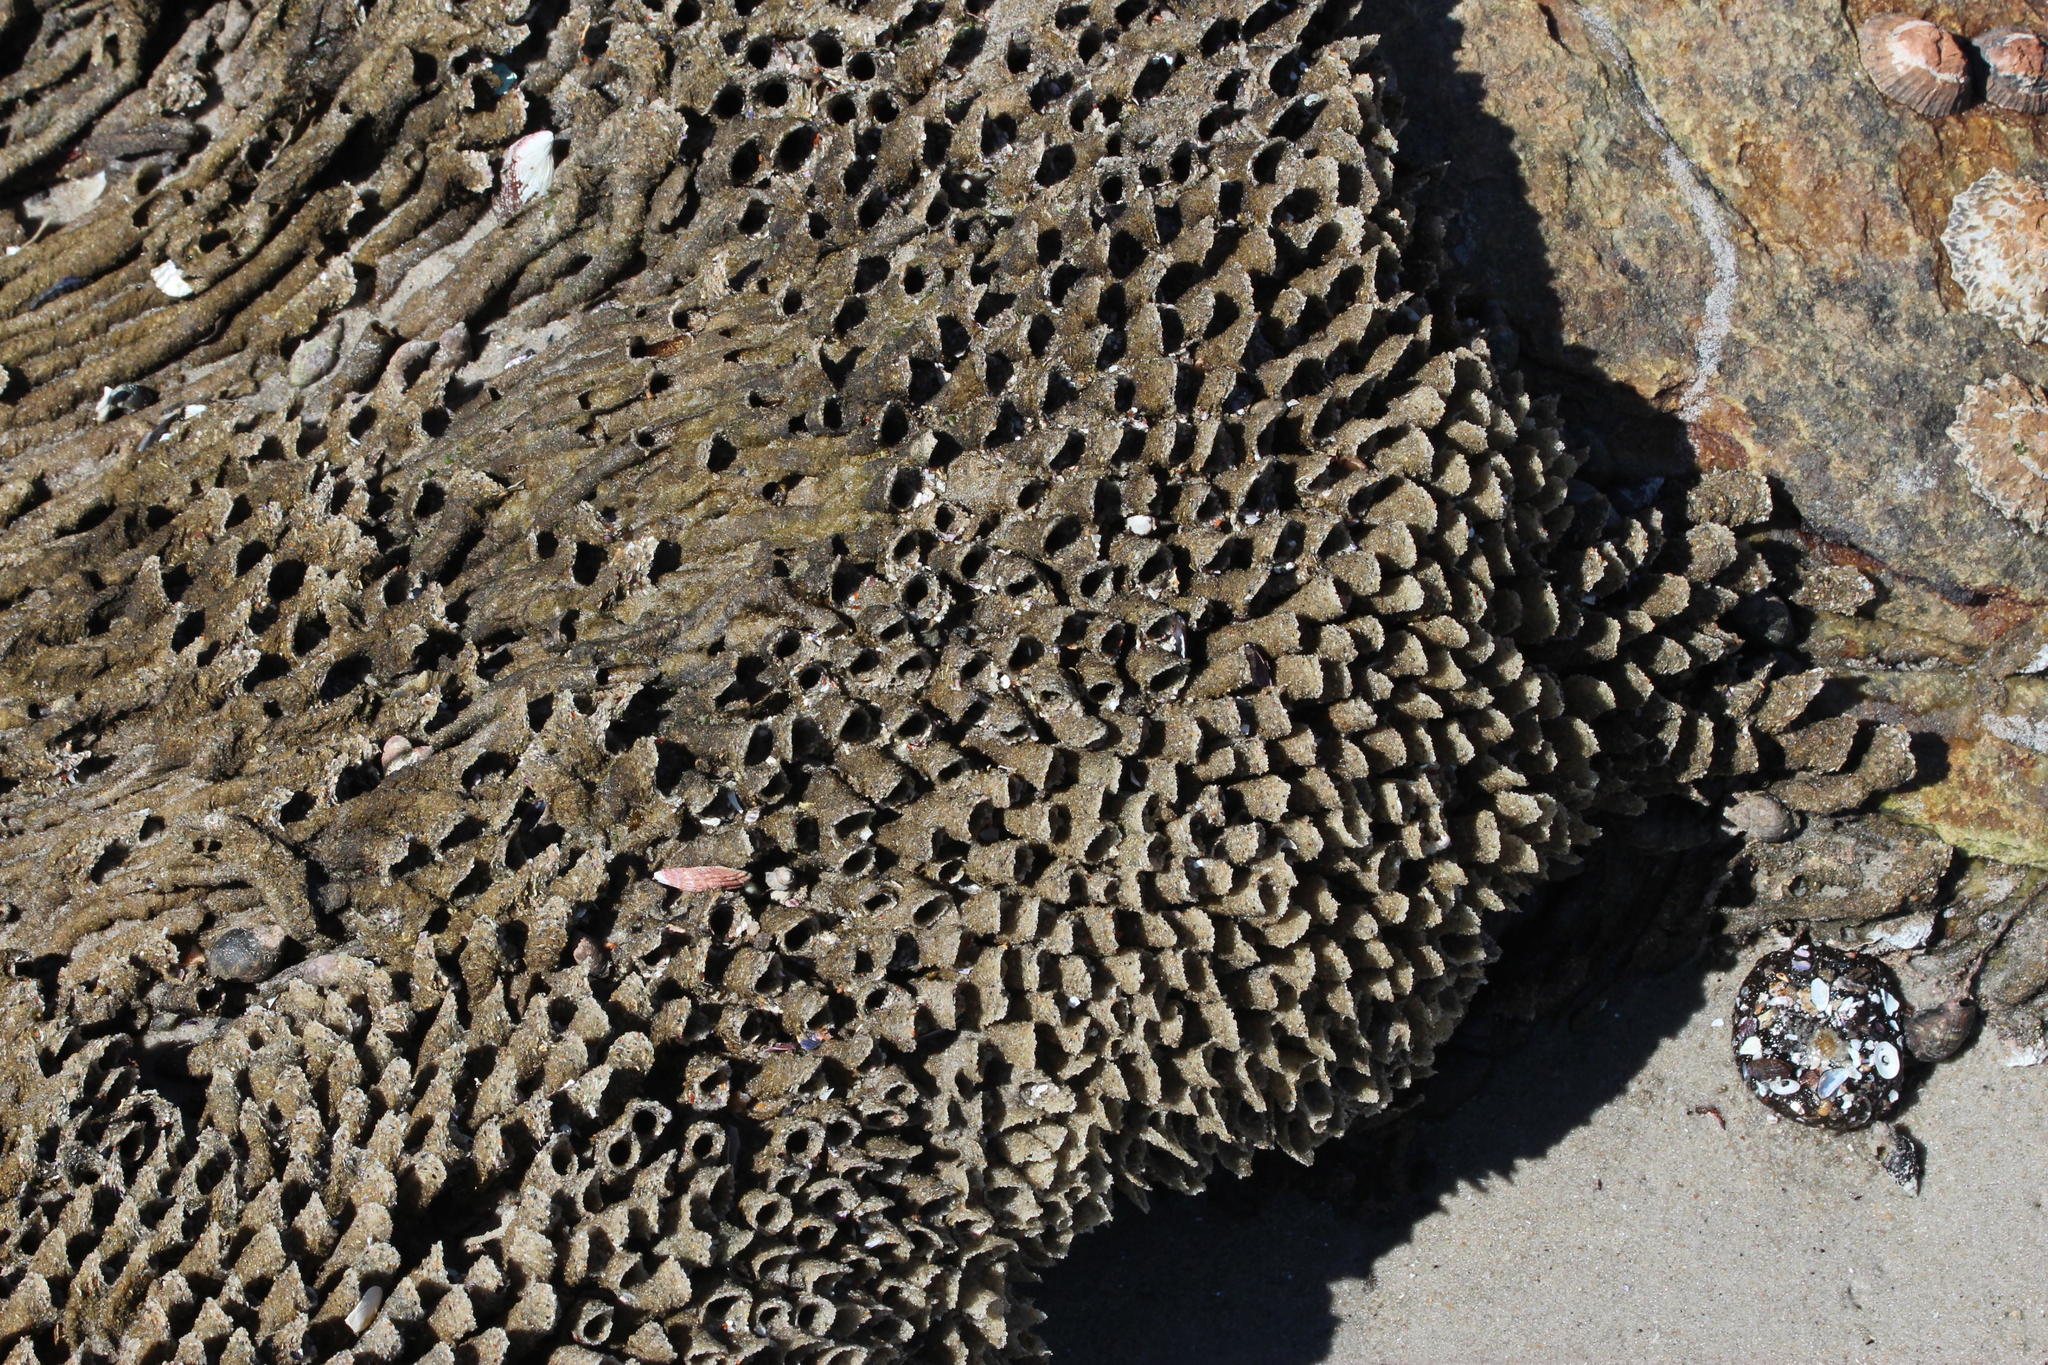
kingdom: Animalia
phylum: Annelida
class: Polychaeta
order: Sabellida
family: Sabellariidae
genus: Gunnarea
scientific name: Gunnarea gaimardi
